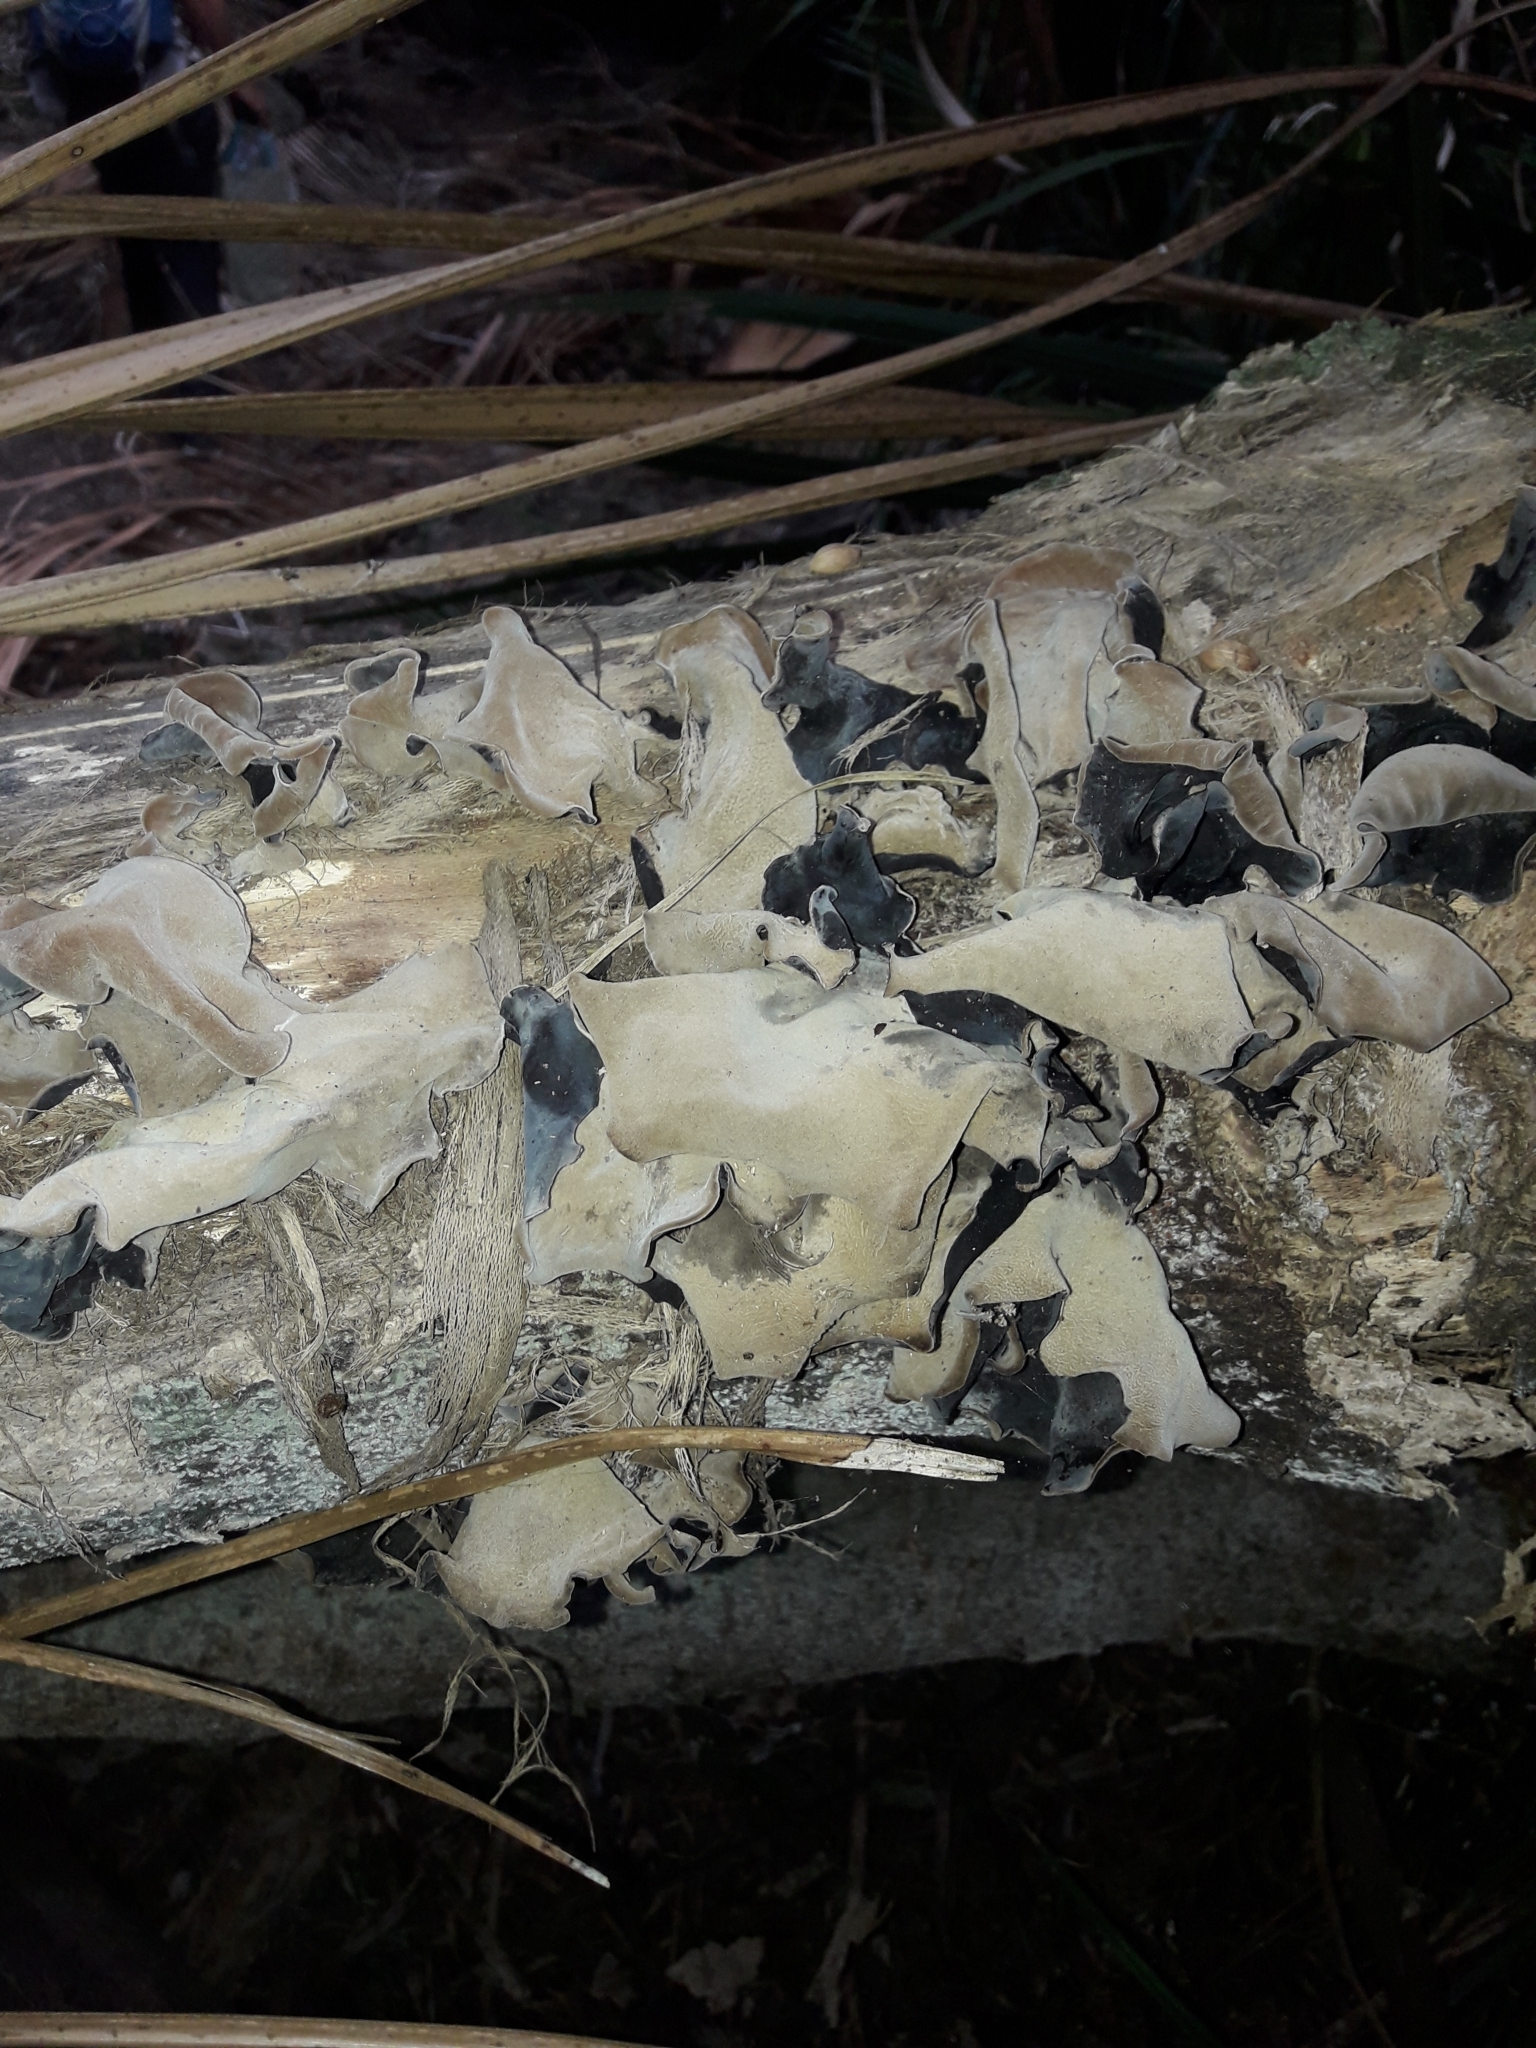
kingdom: Fungi
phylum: Basidiomycota
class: Agaricomycetes
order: Auriculariales
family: Auriculariaceae
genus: Auricularia
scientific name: Auricularia cornea
